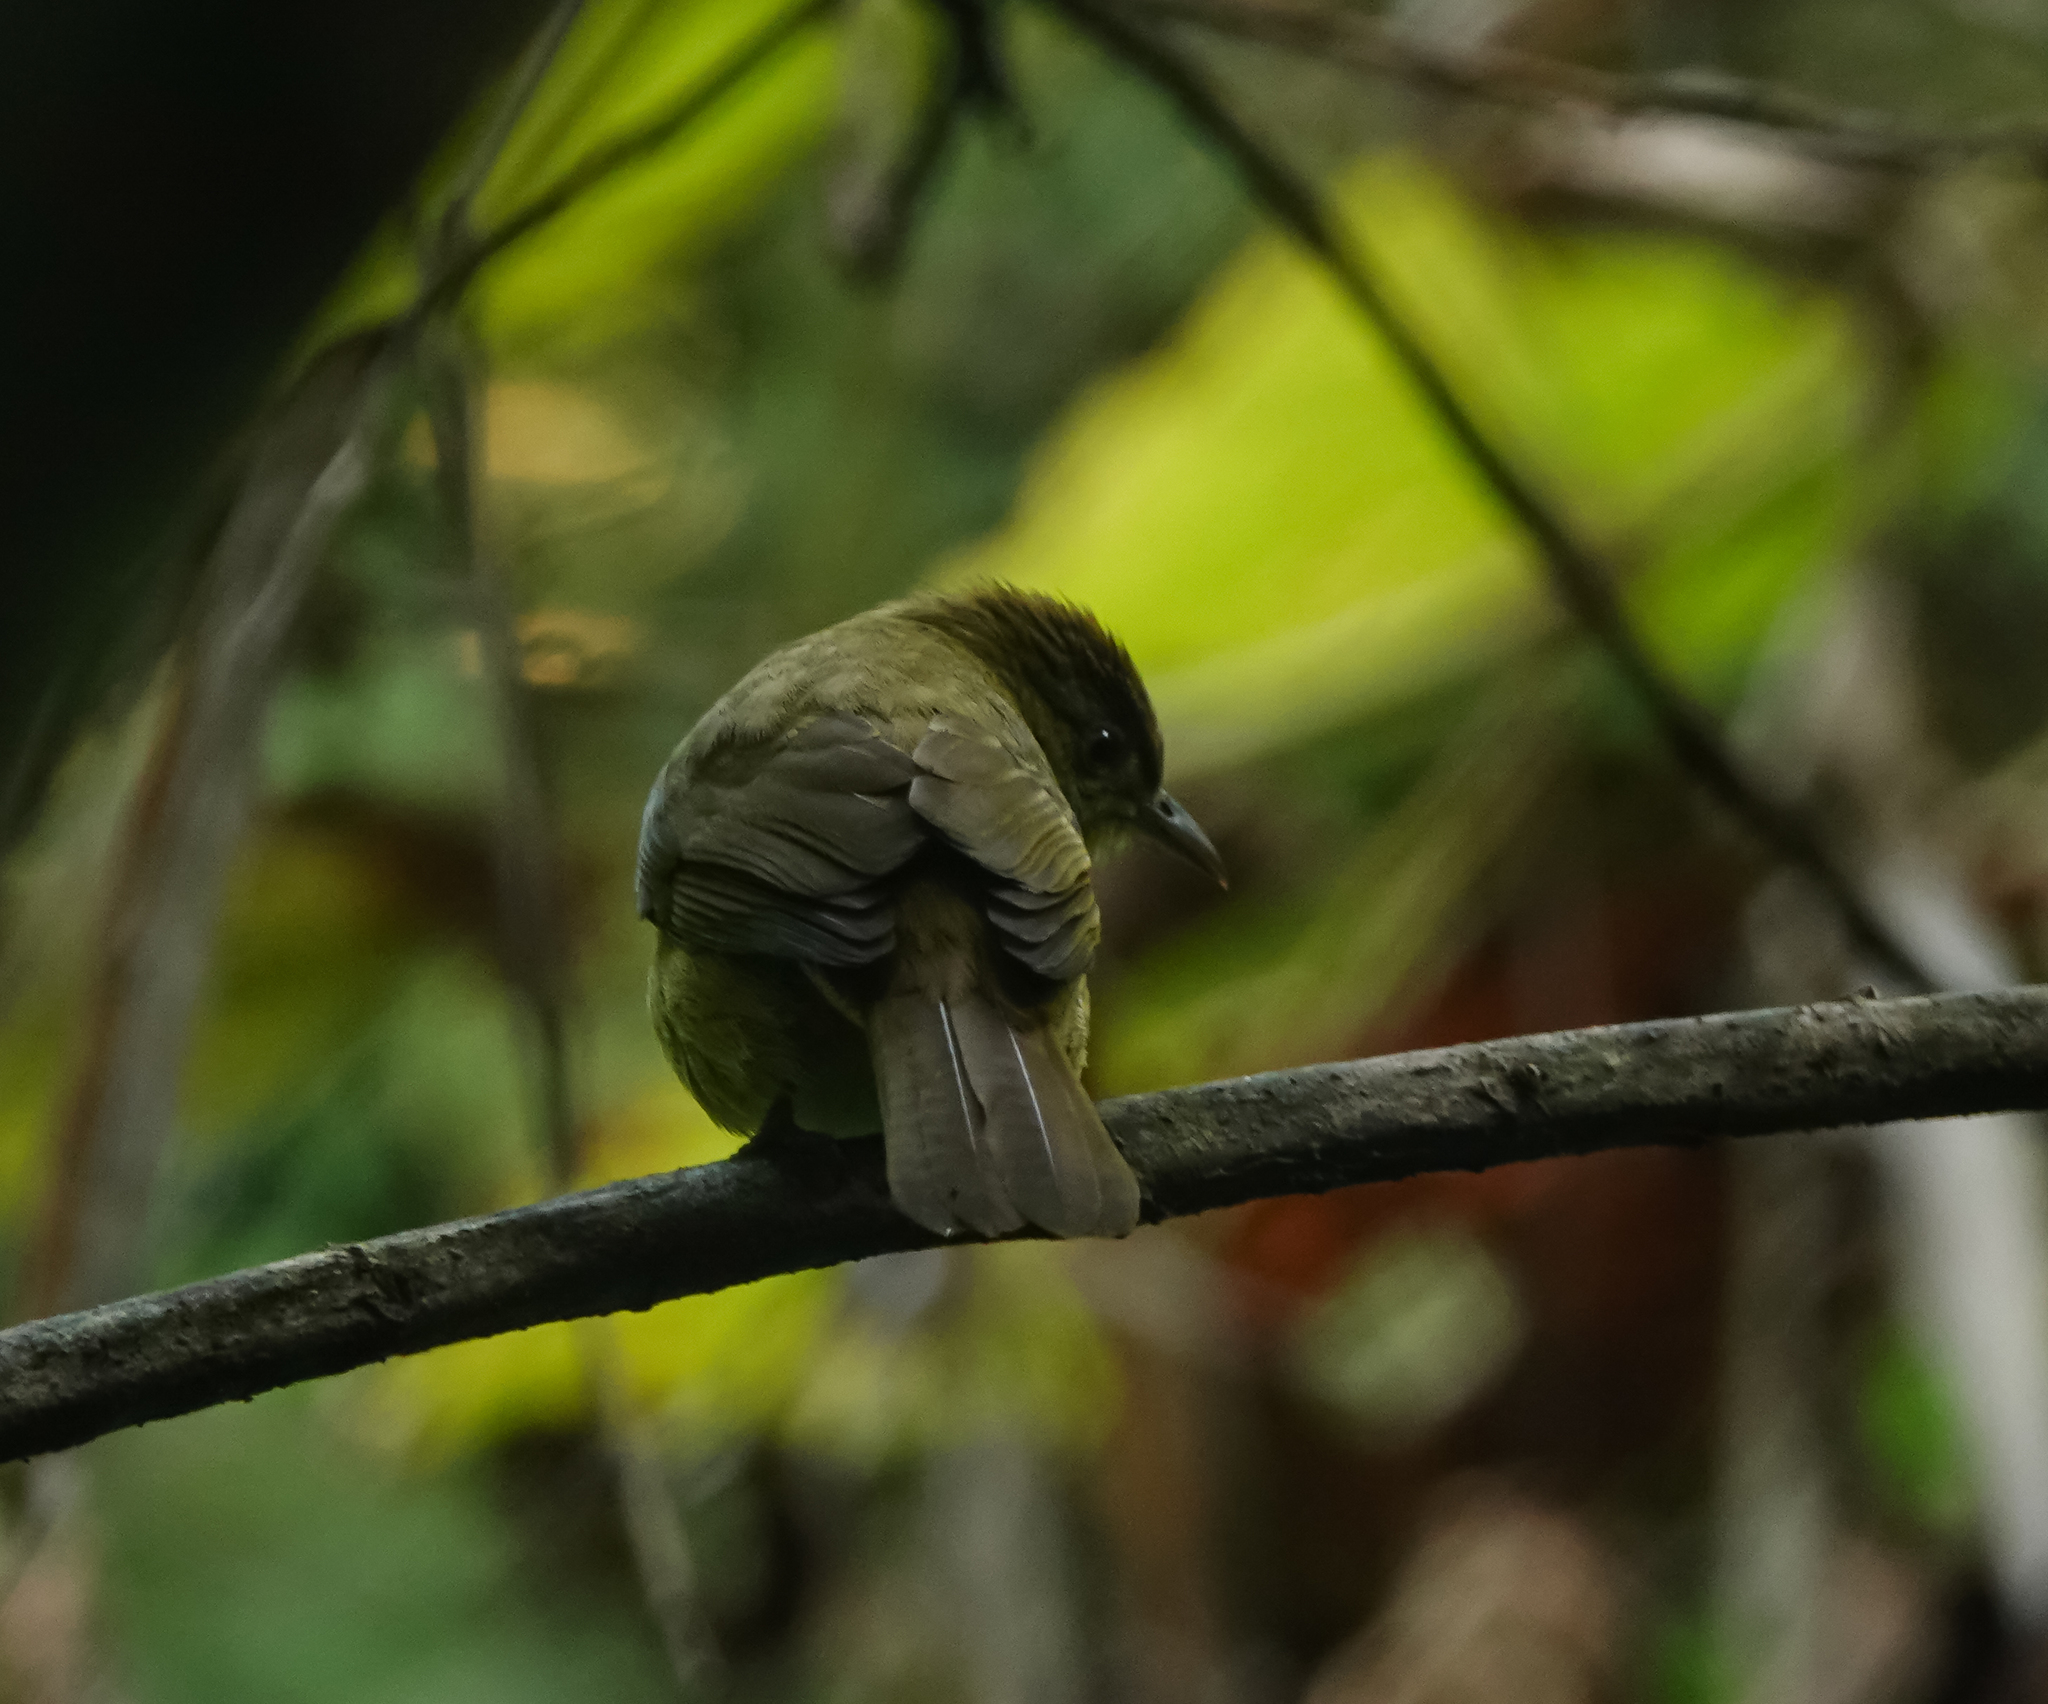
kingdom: Animalia
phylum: Chordata
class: Aves
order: Passeriformes
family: Pycnonotidae
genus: Iole
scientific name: Iole virescens
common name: Olive bulbul
